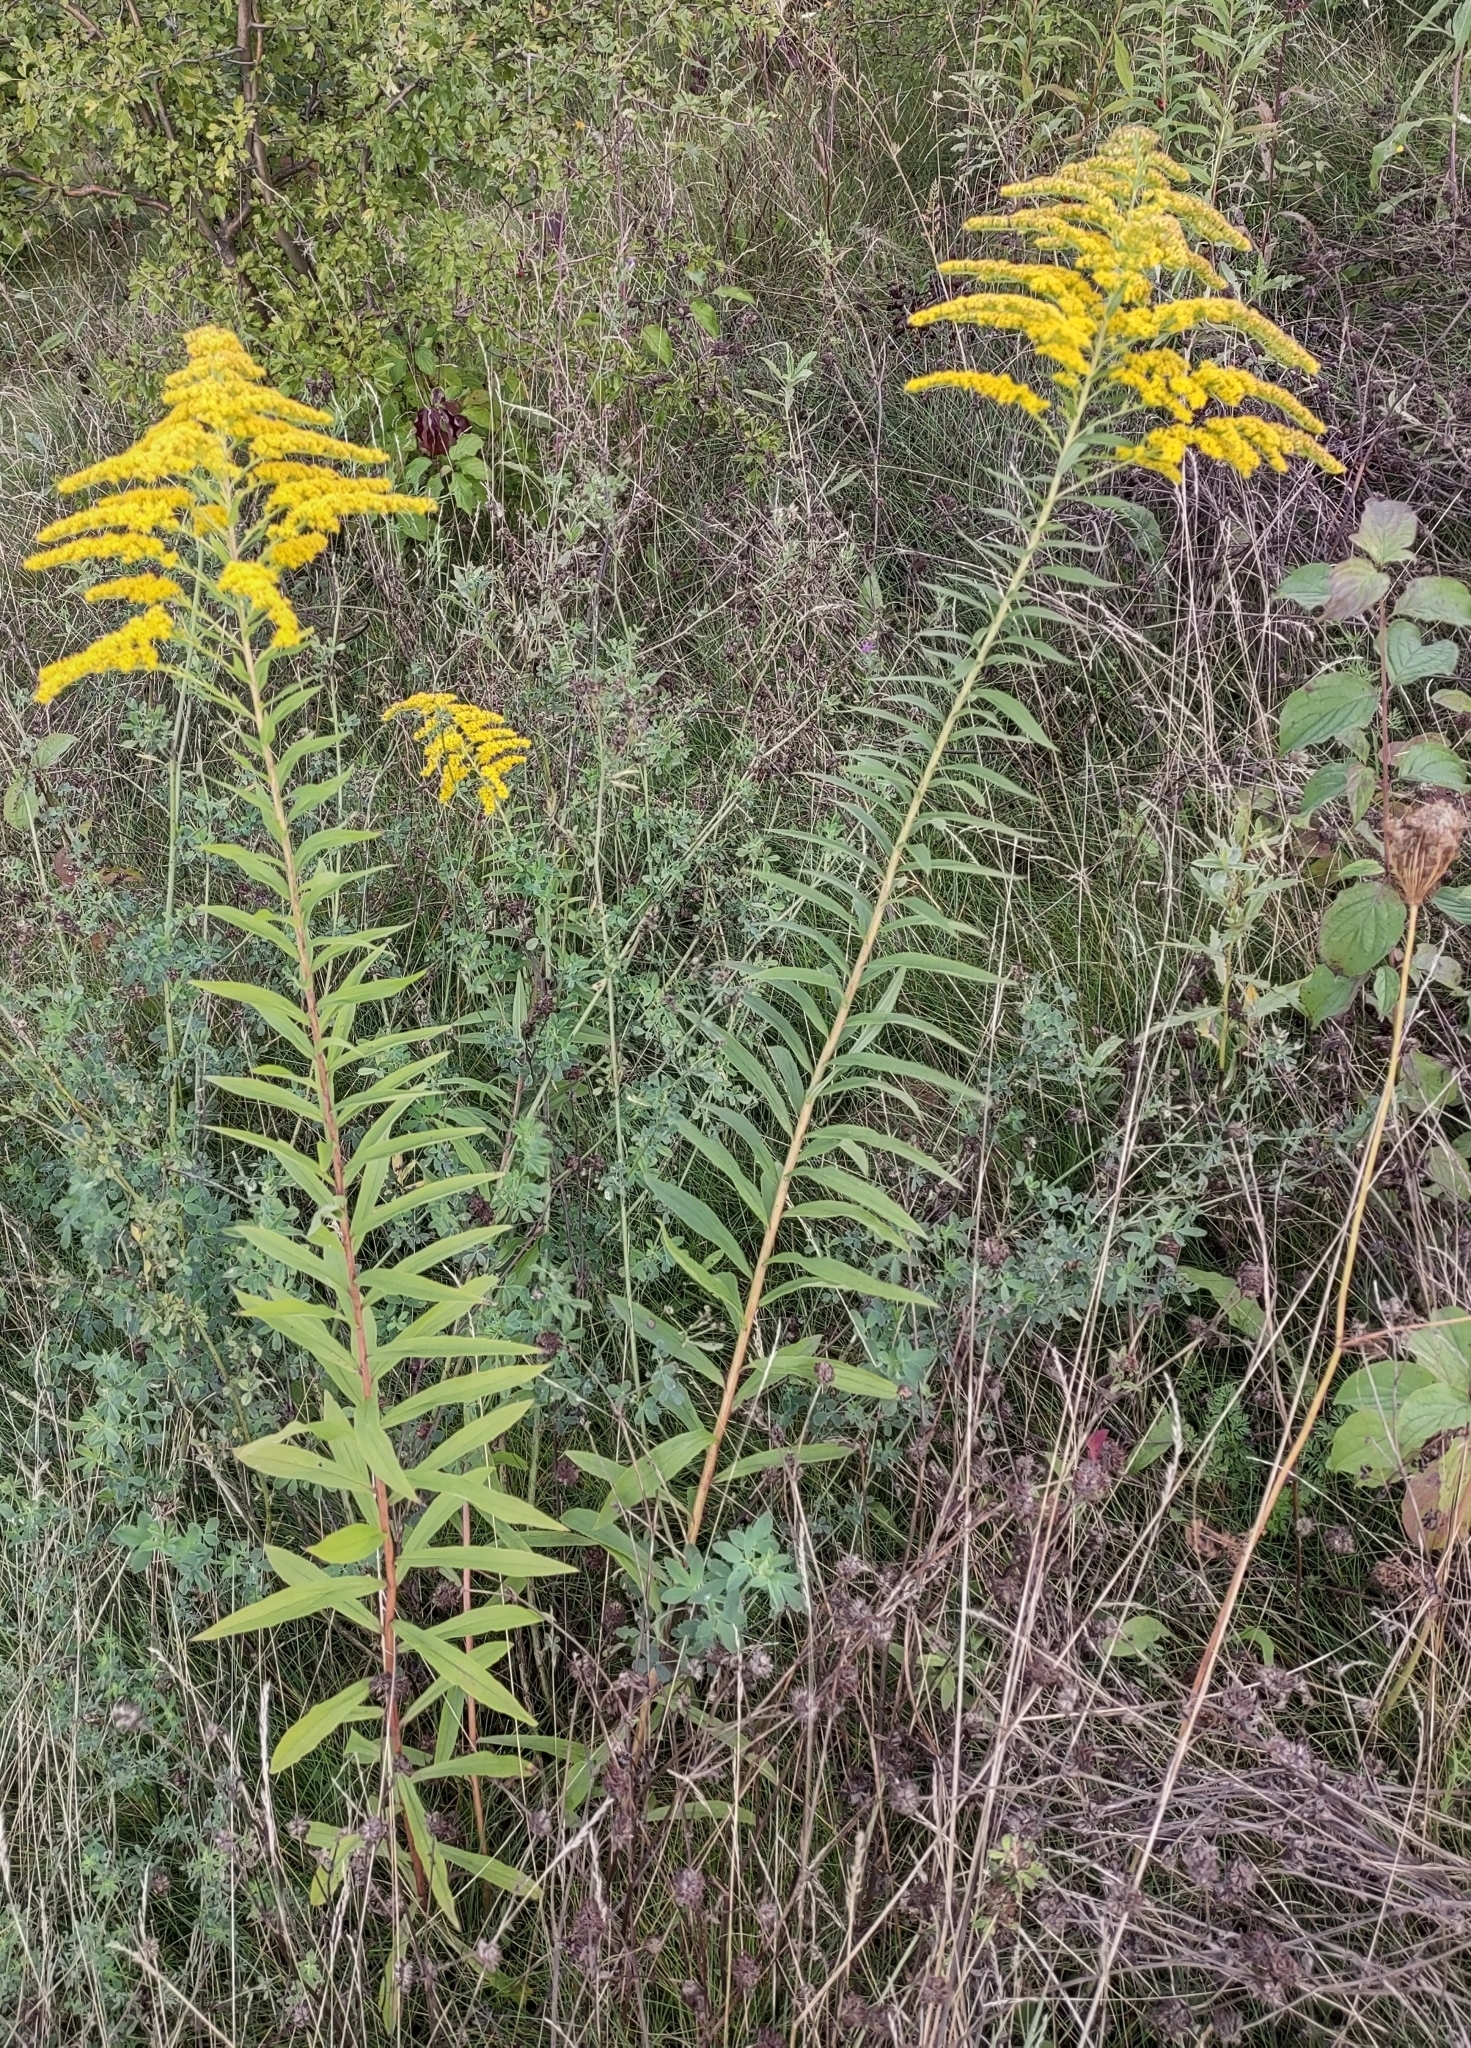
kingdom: Plantae
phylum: Tracheophyta
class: Magnoliopsida
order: Asterales
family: Asteraceae
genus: Solidago
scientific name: Solidago canadensis
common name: Canada goldenrod
